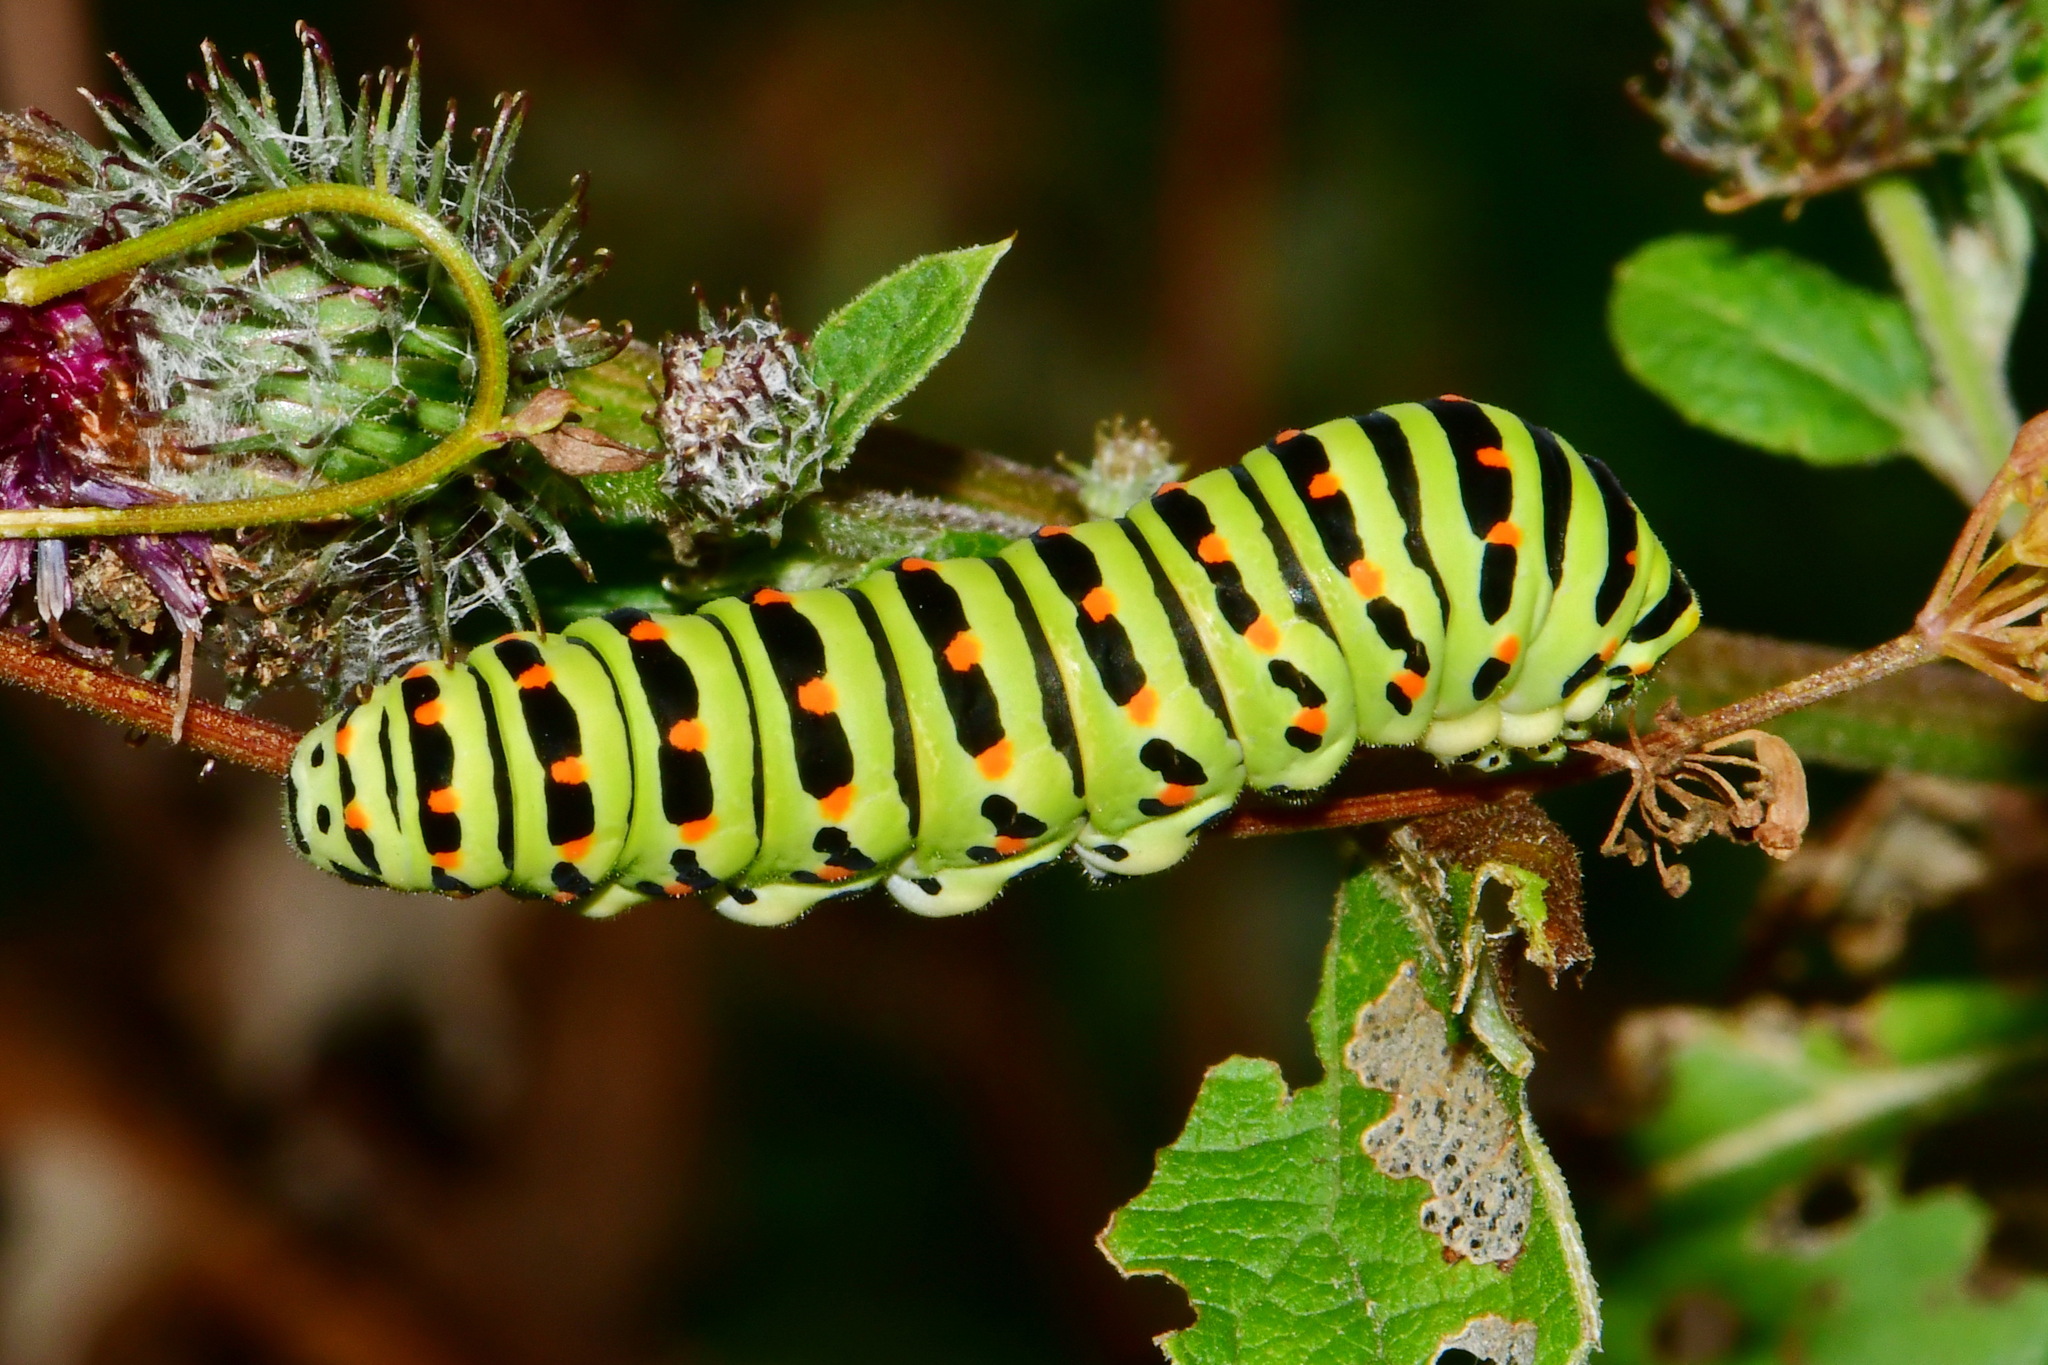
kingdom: Animalia
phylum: Arthropoda
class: Insecta
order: Lepidoptera
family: Papilionidae
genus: Papilio
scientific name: Papilio machaon
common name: Swallowtail
